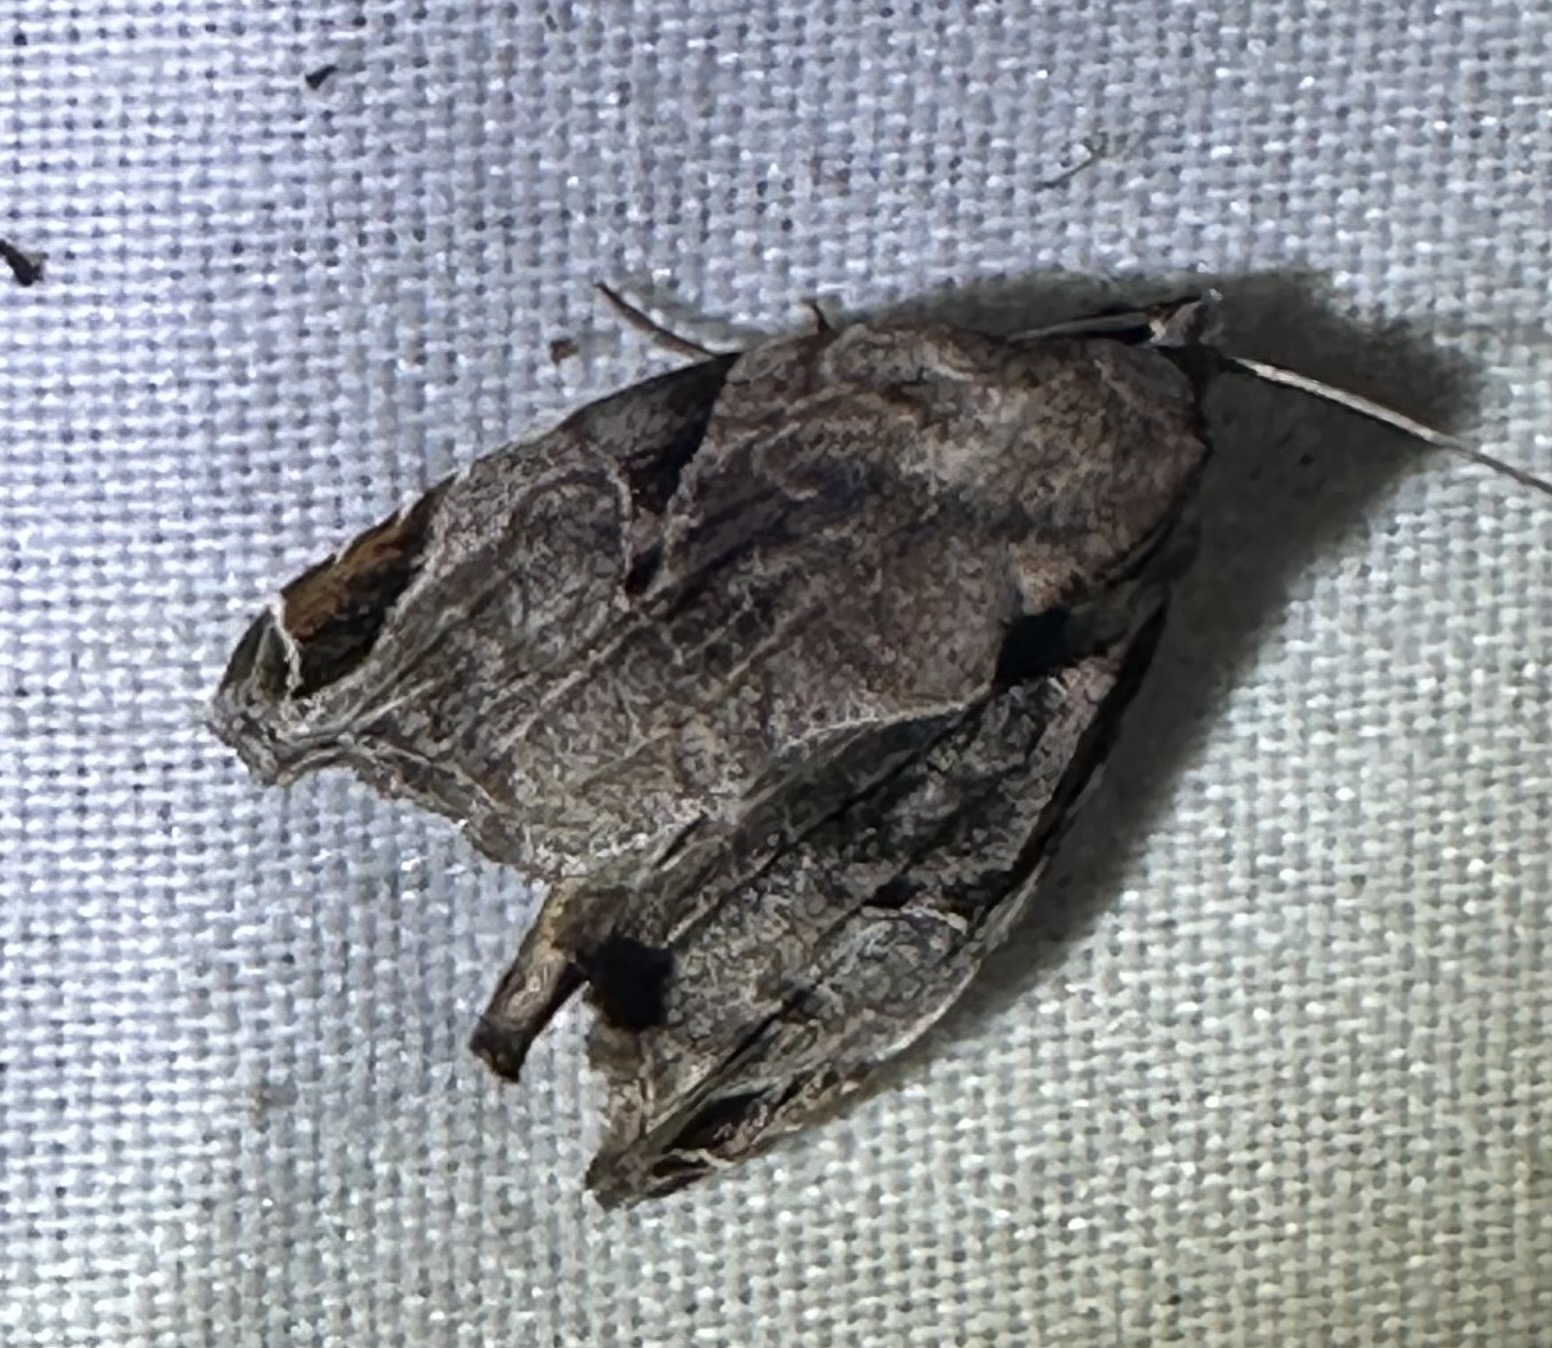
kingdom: Animalia
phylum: Arthropoda
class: Insecta
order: Lepidoptera
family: Noctuidae
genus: Androlymnia
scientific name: Androlymnia torsivena
